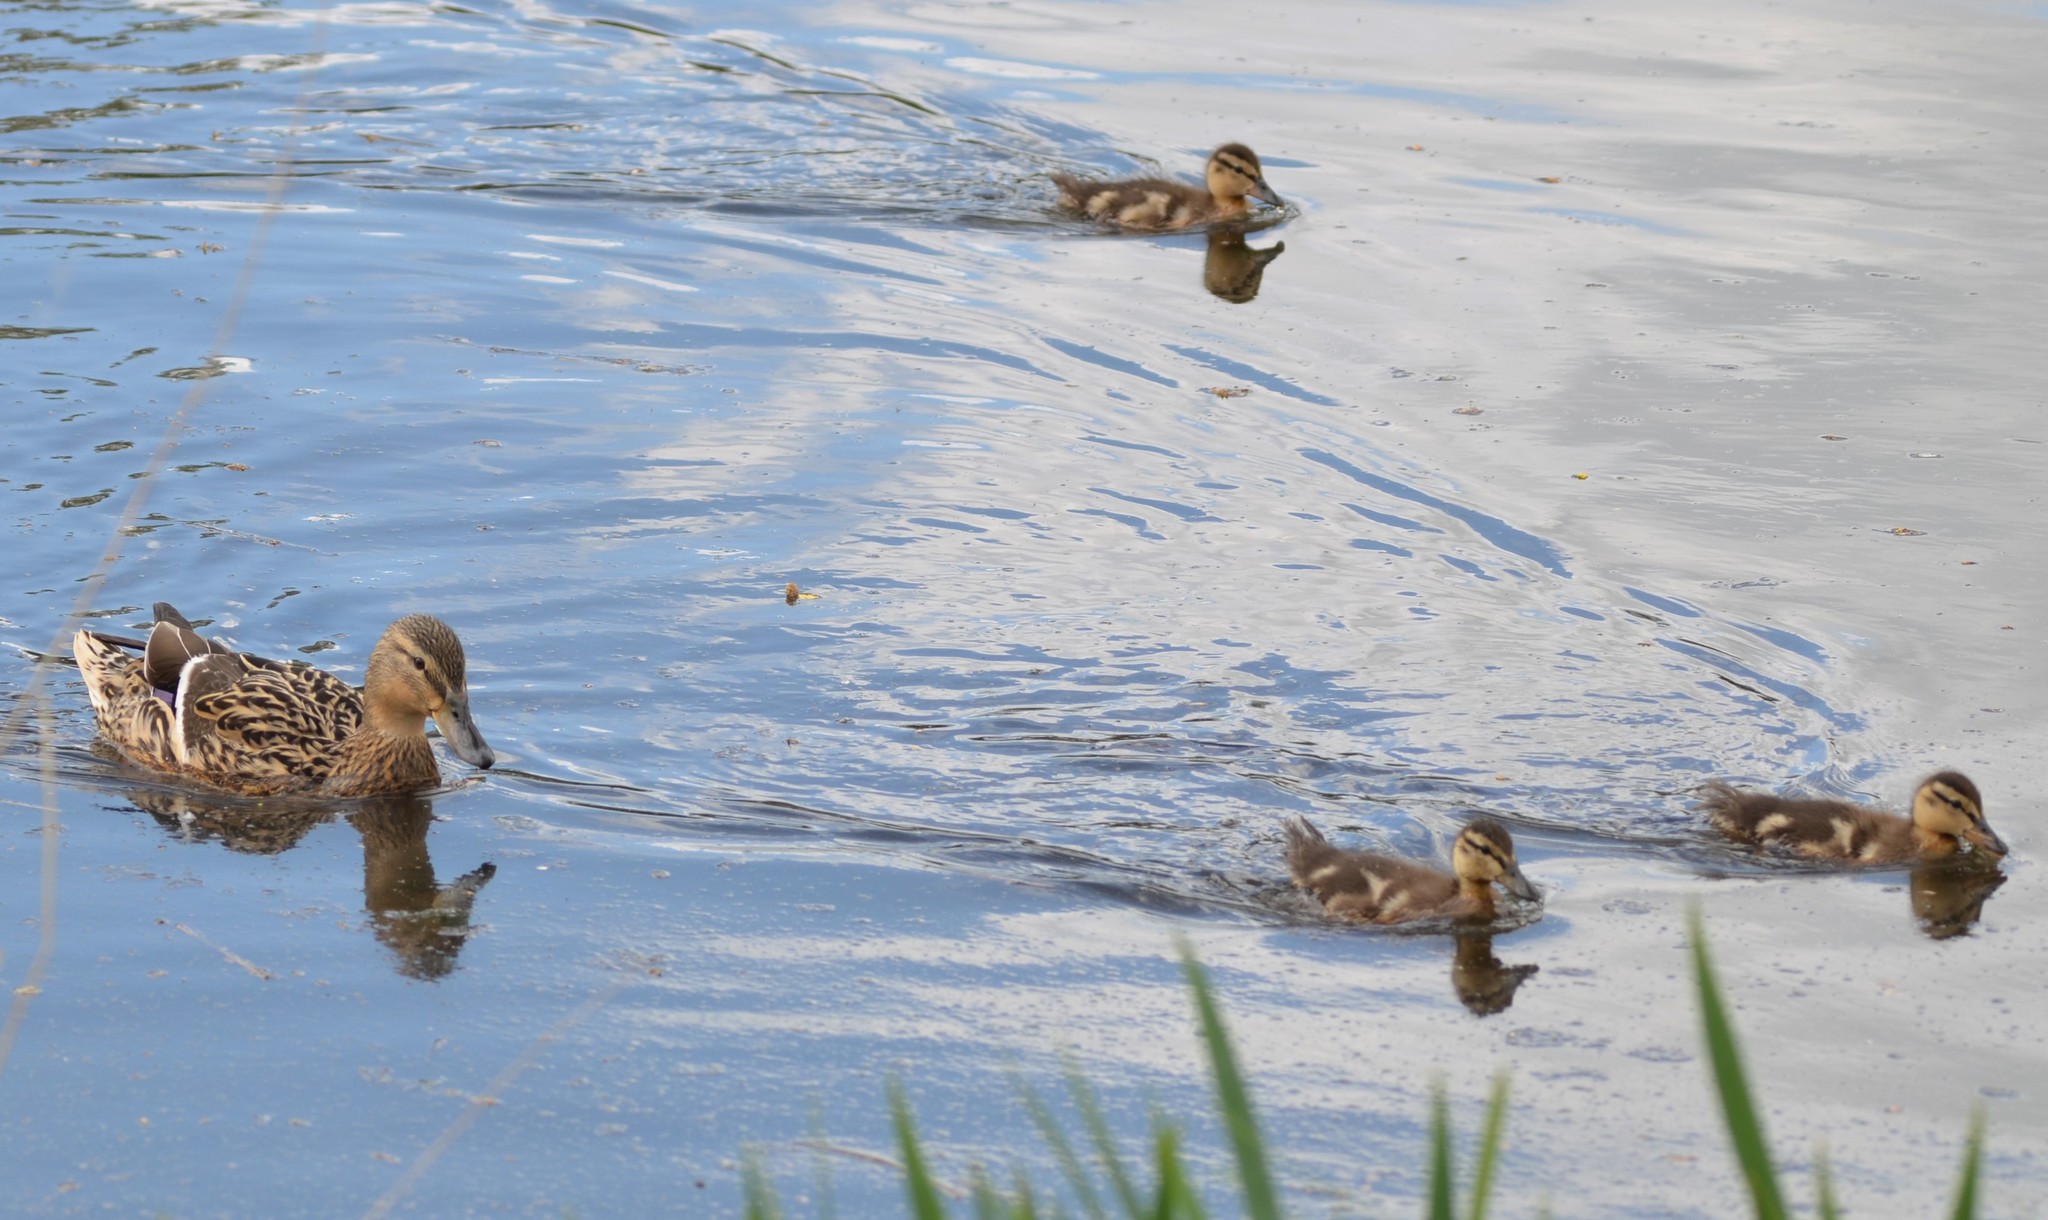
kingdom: Animalia
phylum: Chordata
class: Aves
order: Anseriformes
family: Anatidae
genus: Anas
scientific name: Anas platyrhynchos
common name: Mallard
